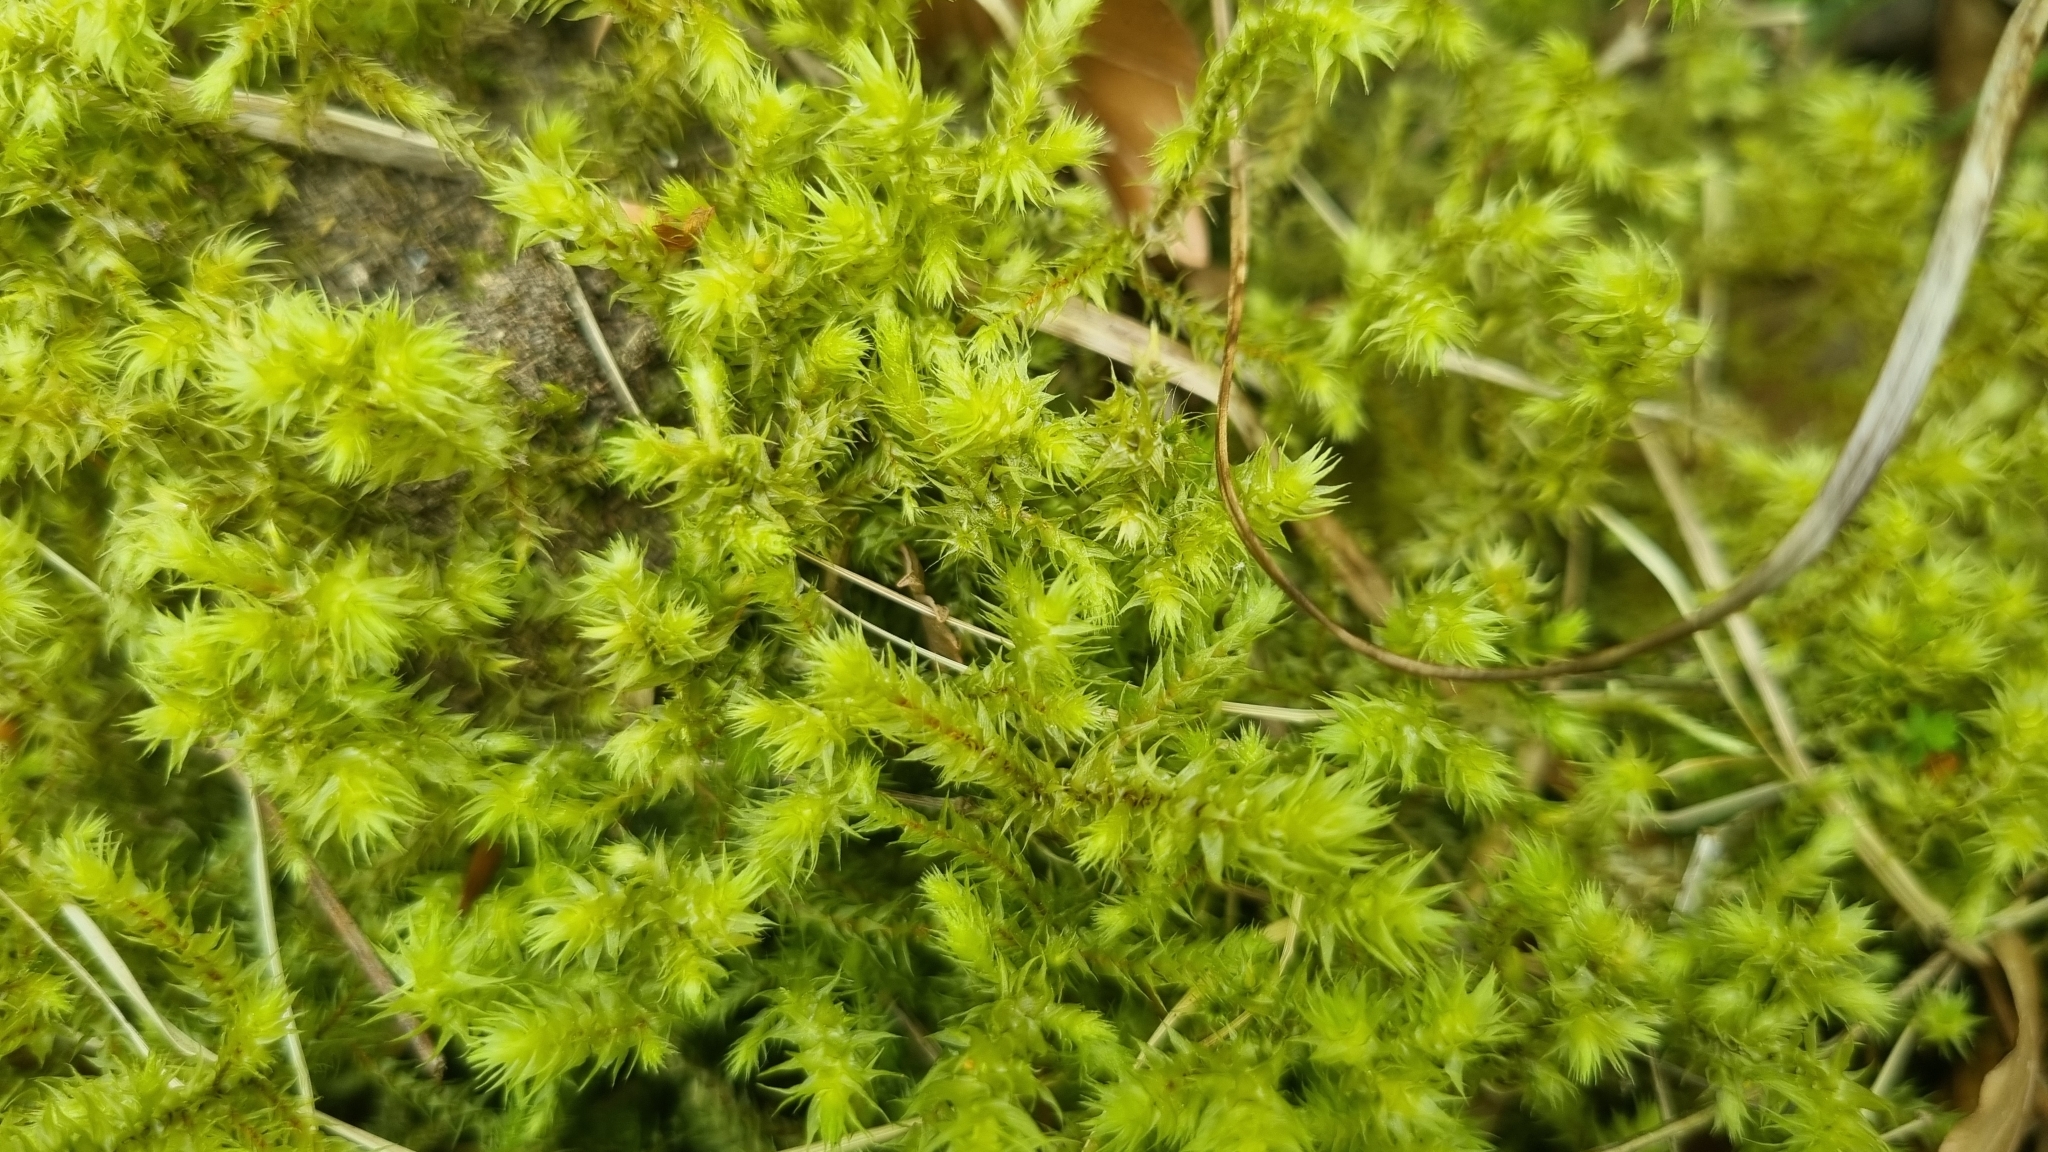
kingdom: Plantae
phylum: Bryophyta
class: Bryopsida
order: Hypnales
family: Hylocomiaceae
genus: Hylocomiadelphus
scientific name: Hylocomiadelphus triquetrus
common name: Rough goose neck moss
